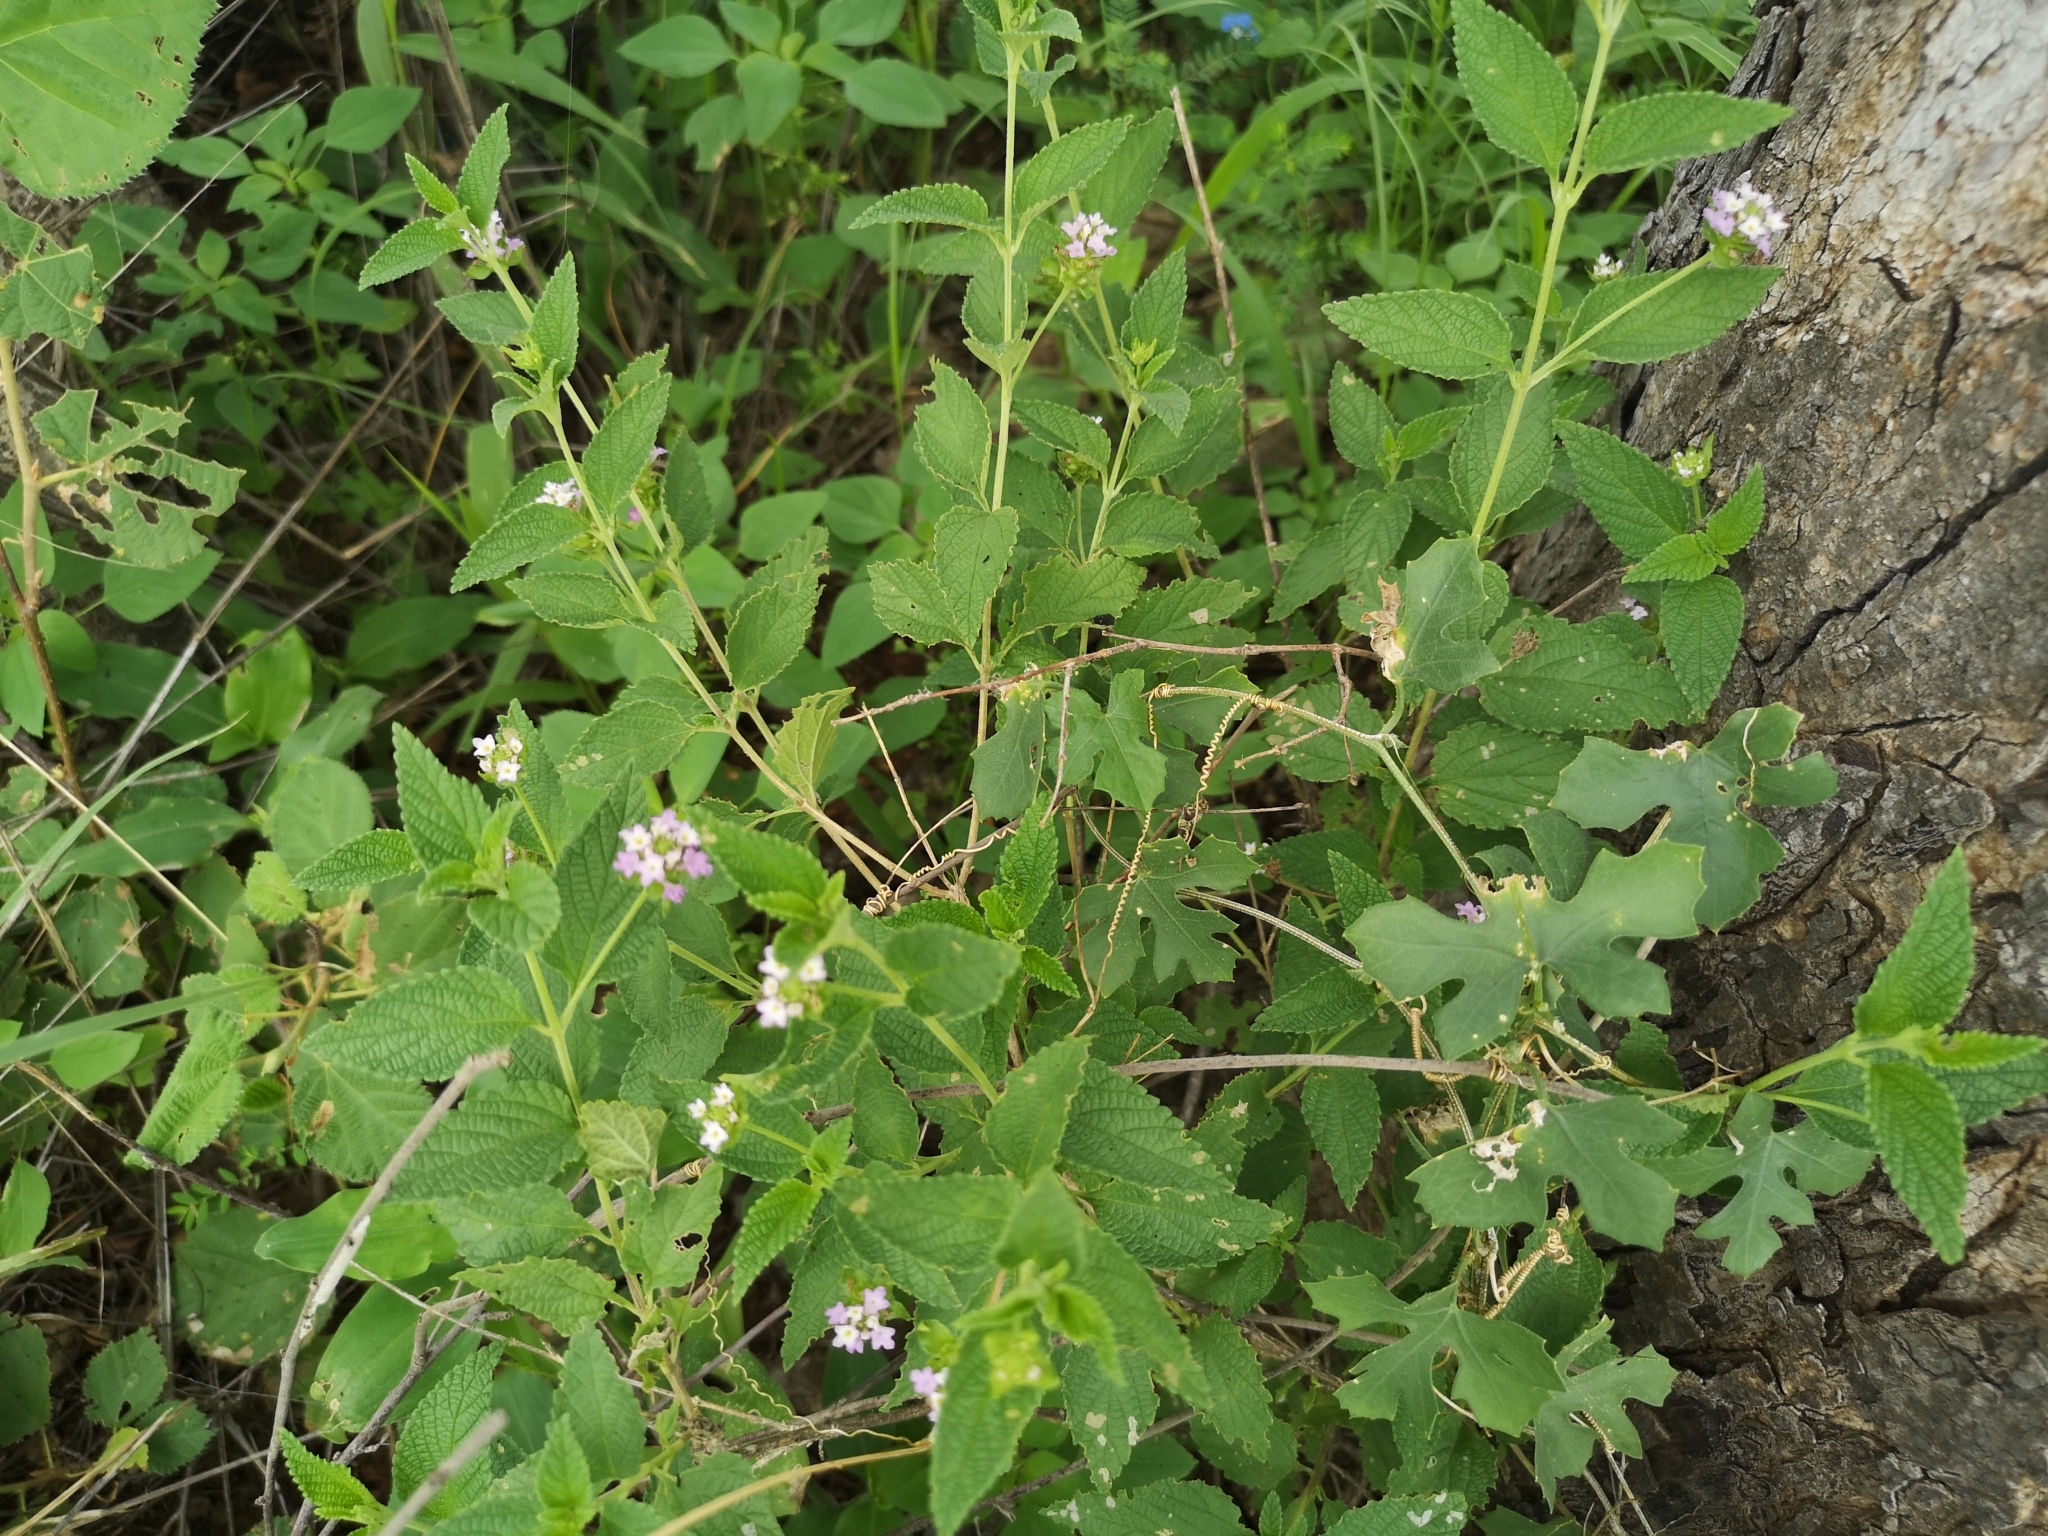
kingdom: Plantae
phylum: Tracheophyta
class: Magnoliopsida
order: Lamiales
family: Verbenaceae
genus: Lantana
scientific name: Lantana rugosa
